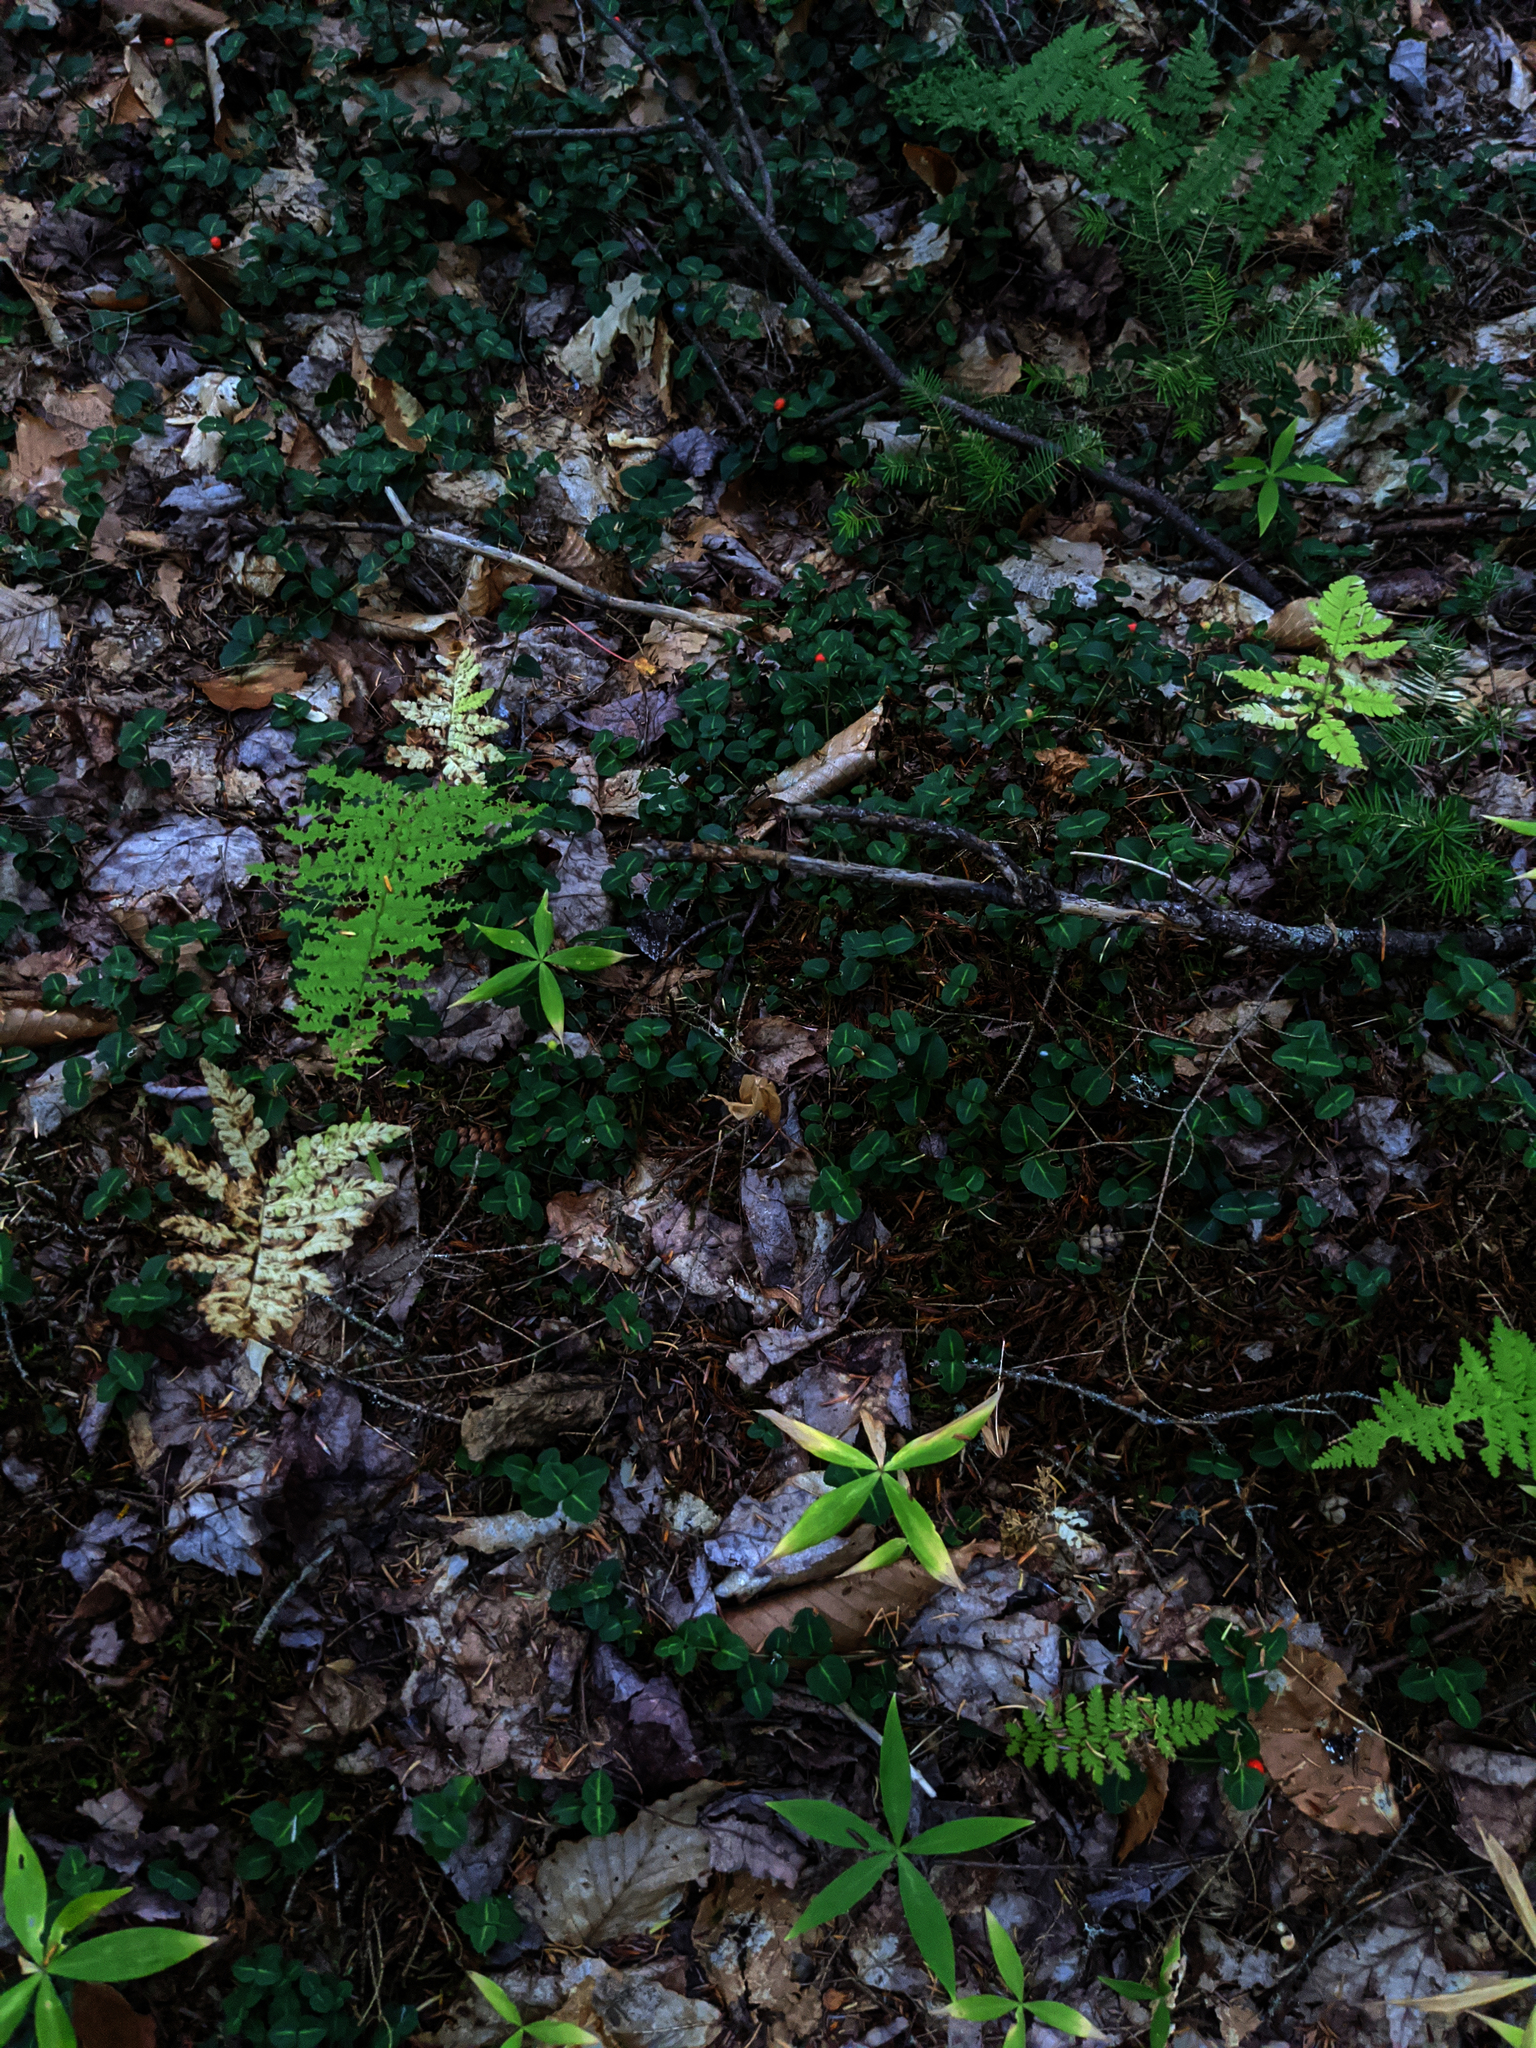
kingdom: Plantae
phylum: Tracheophyta
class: Magnoliopsida
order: Gentianales
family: Rubiaceae
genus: Mitchella
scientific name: Mitchella repens
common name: Partridge-berry
